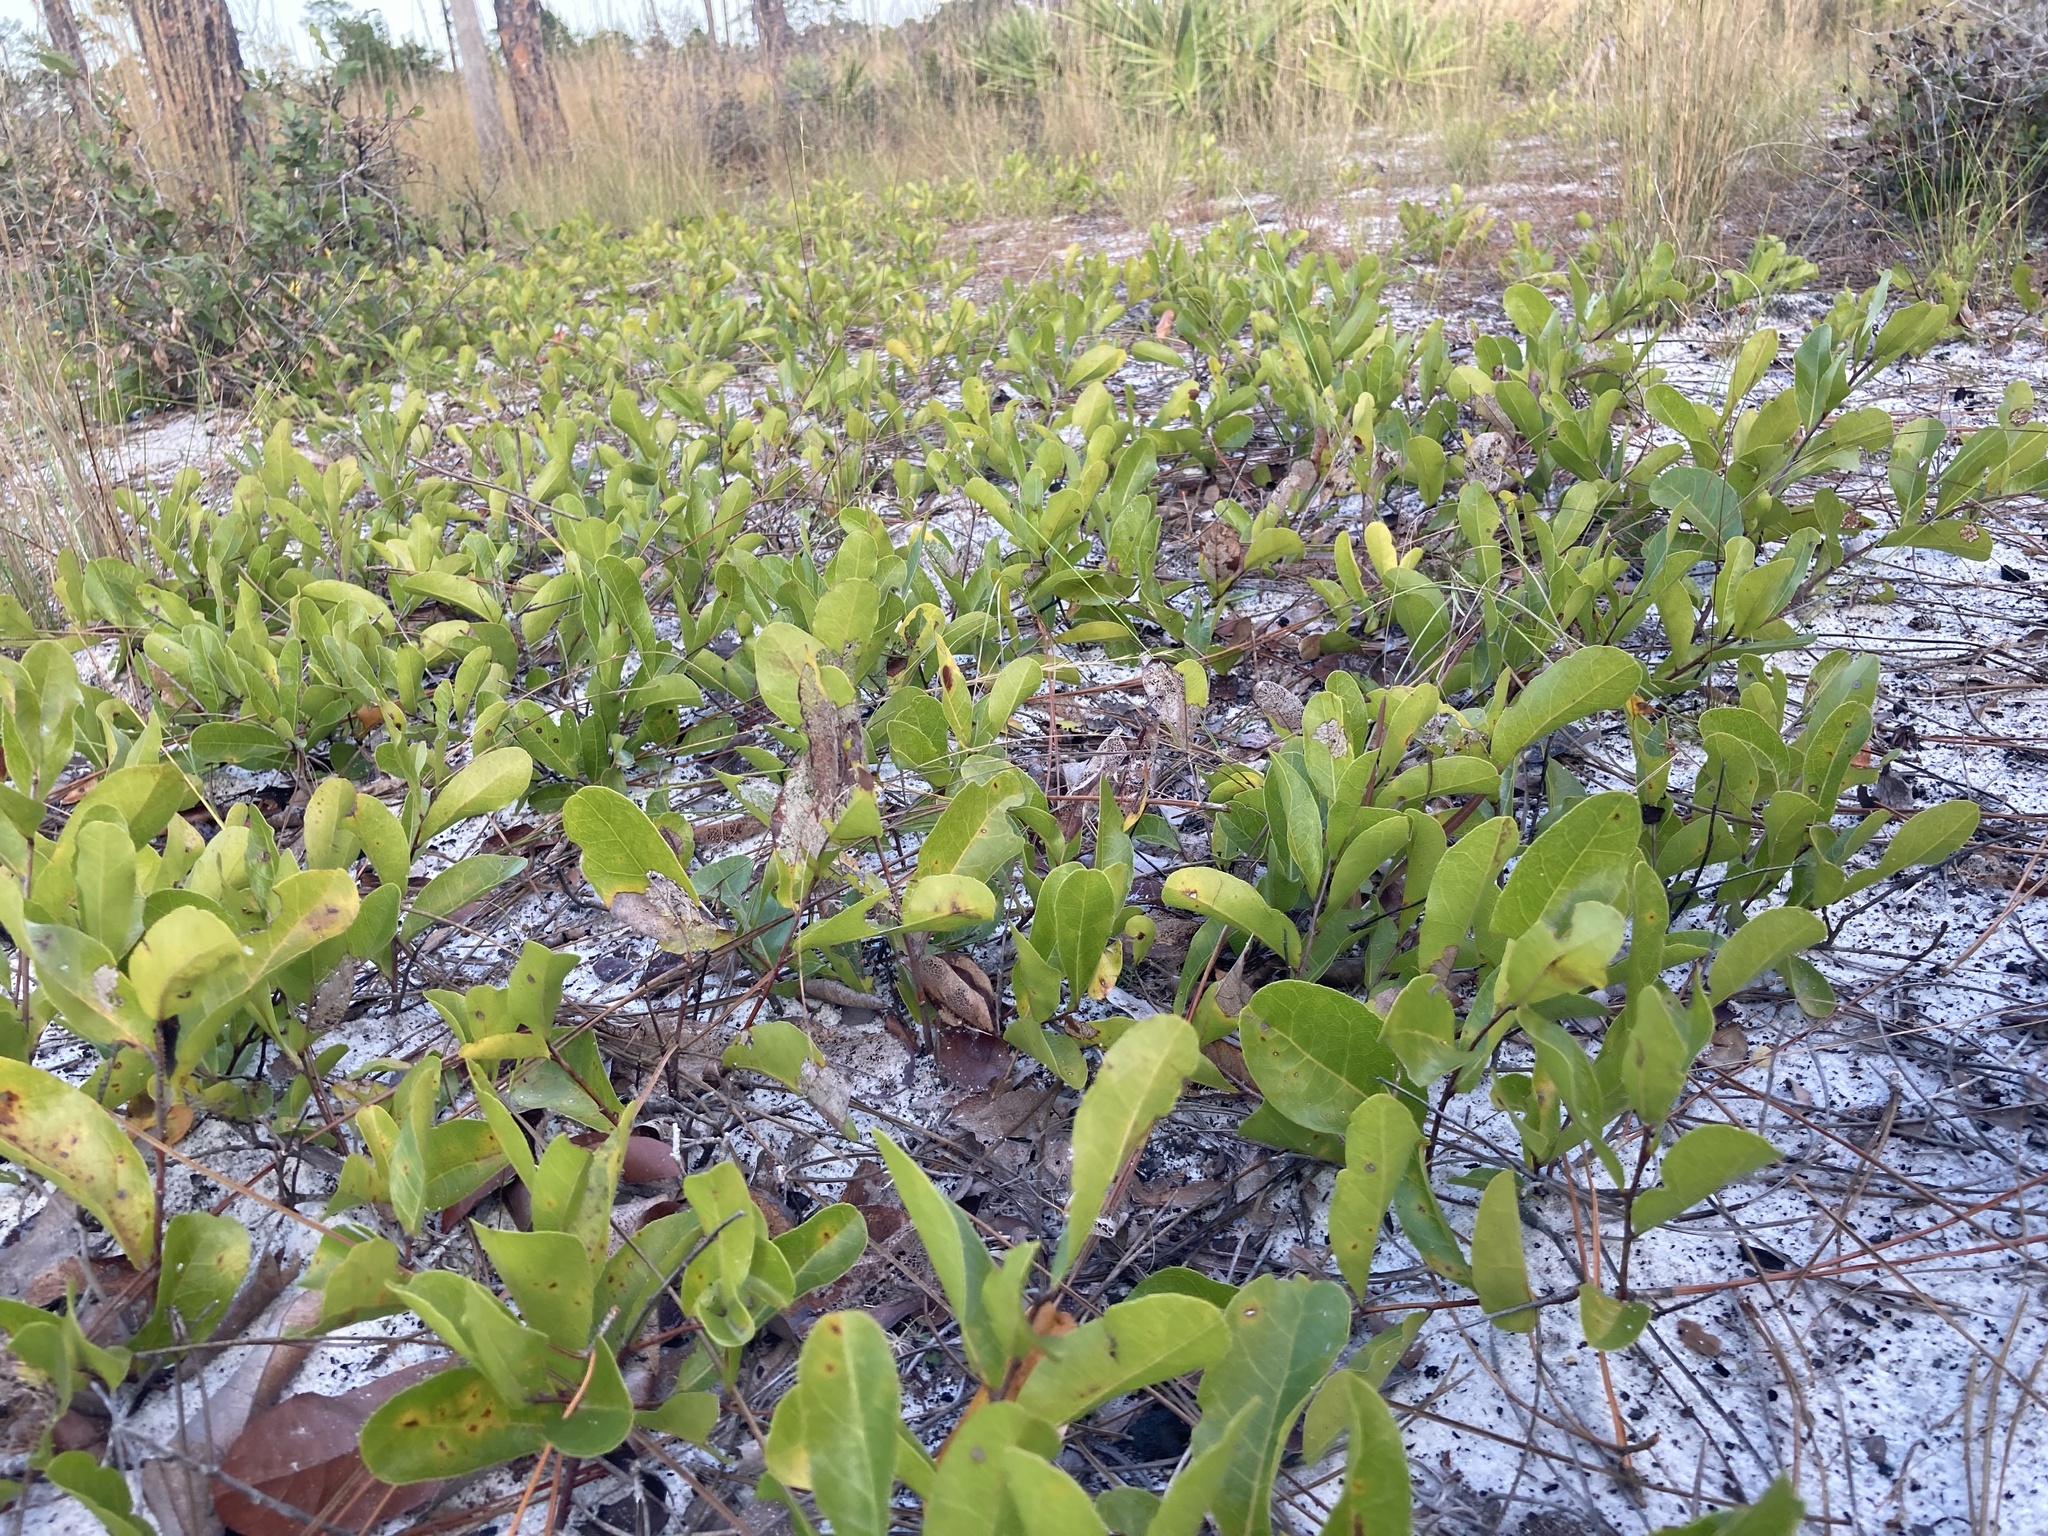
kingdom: Plantae
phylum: Tracheophyta
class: Magnoliopsida
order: Malpighiales
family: Chrysobalanaceae
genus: Geobalanus
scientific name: Geobalanus oblongifolius
